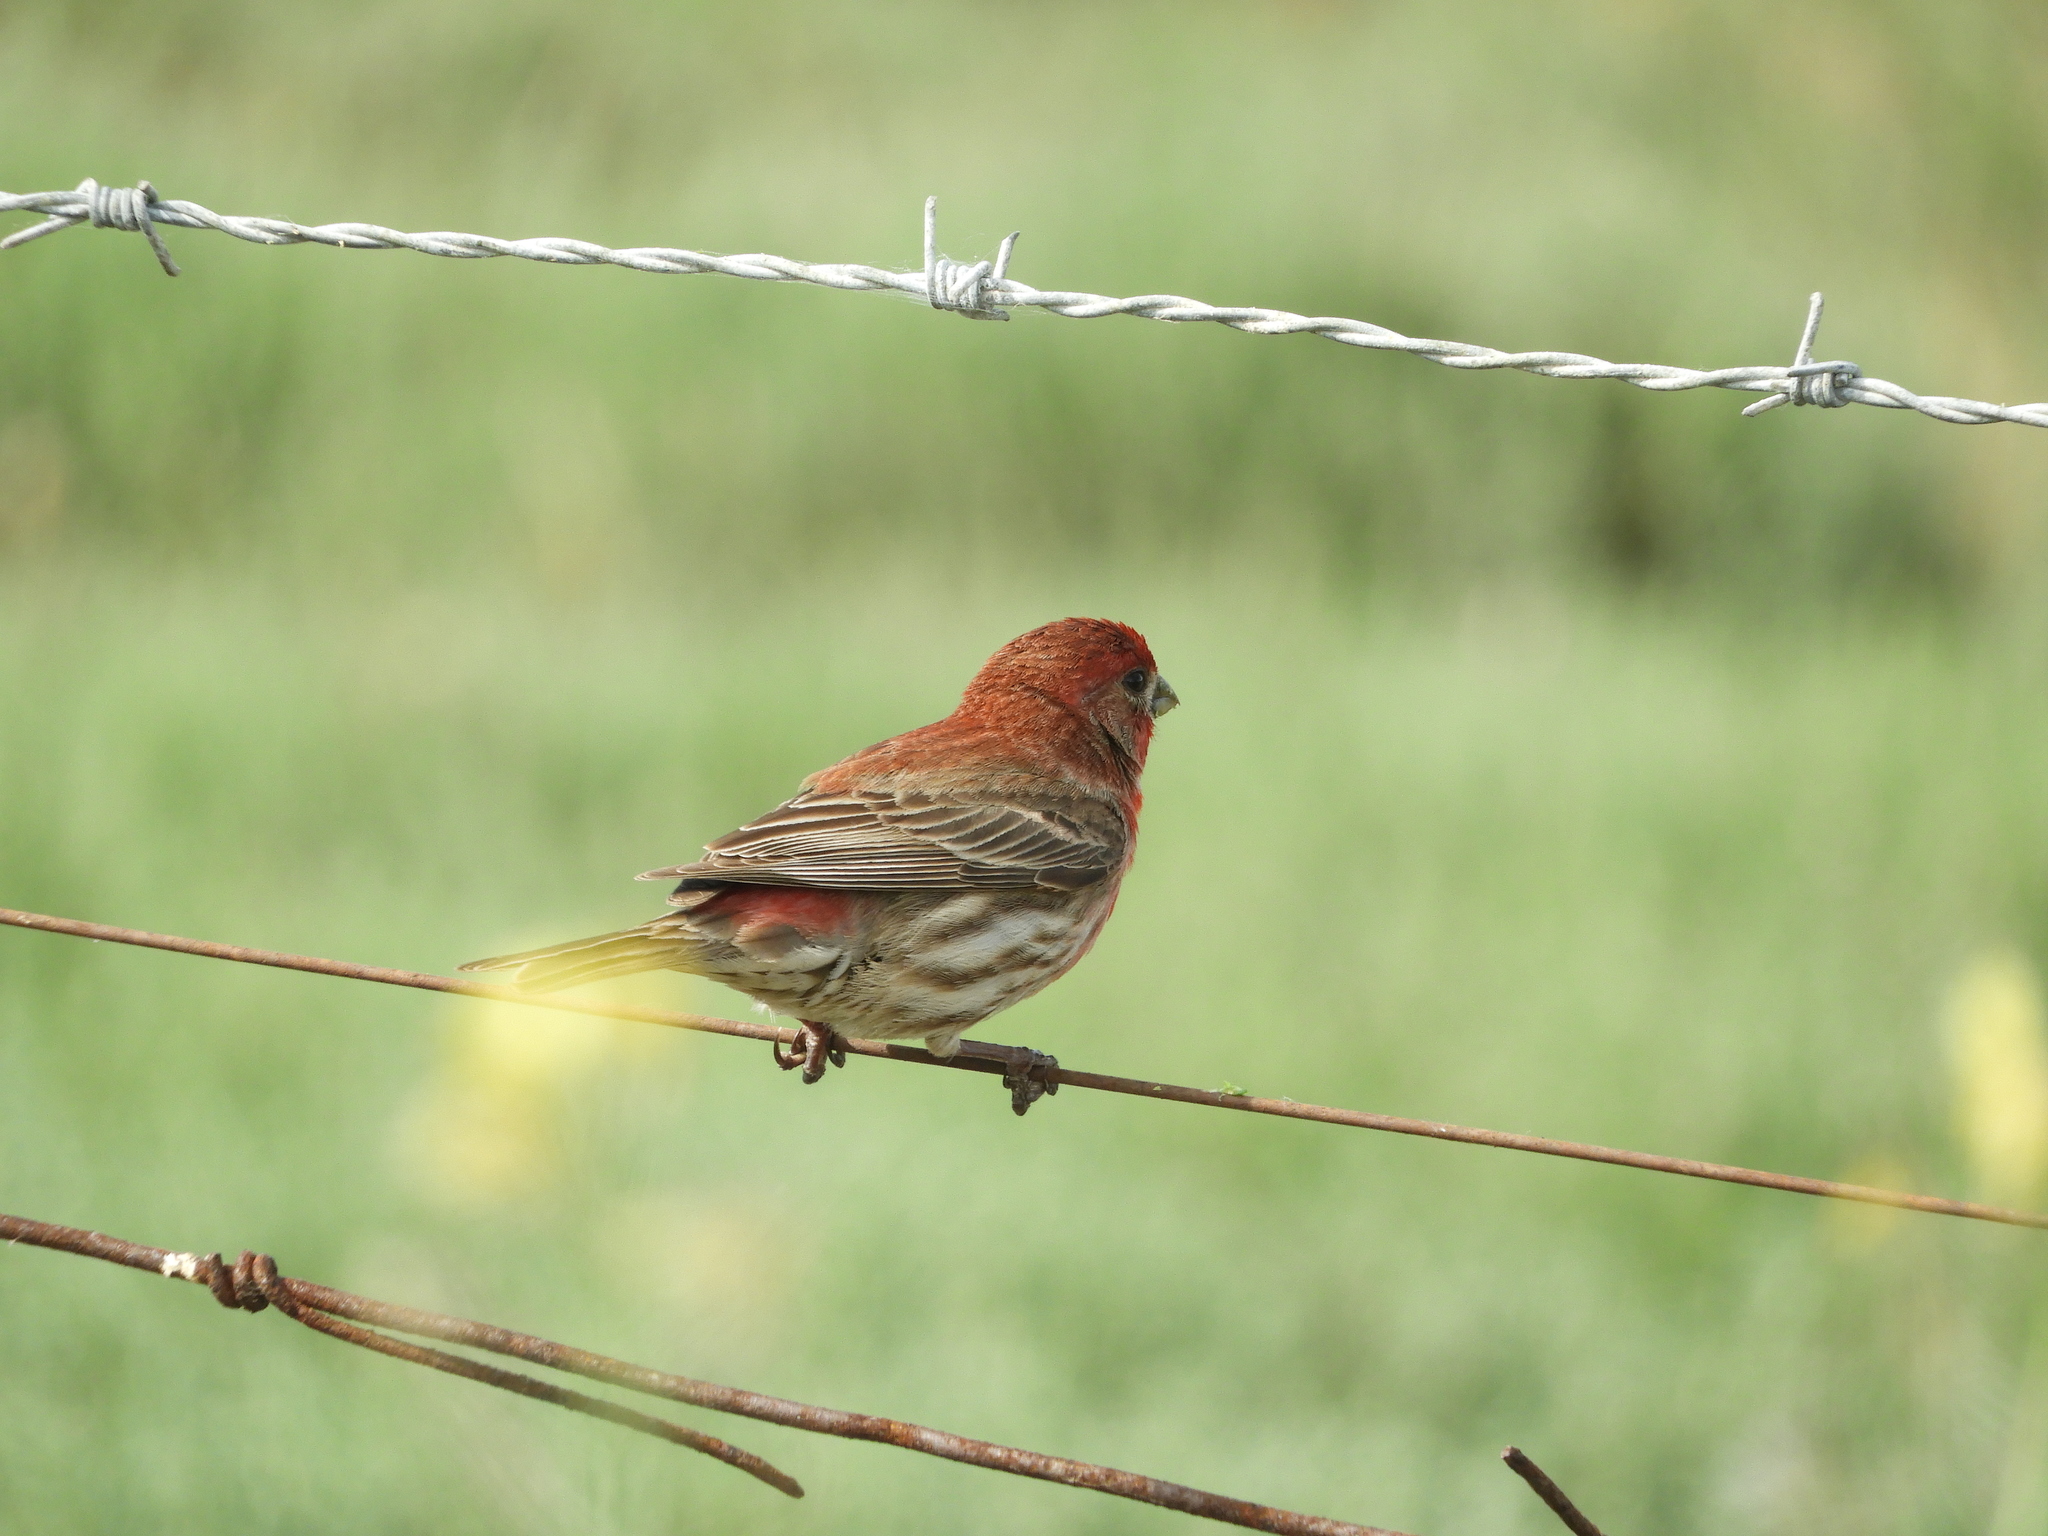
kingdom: Animalia
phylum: Chordata
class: Aves
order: Passeriformes
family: Fringillidae
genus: Haemorhous
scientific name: Haemorhous mexicanus
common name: House finch
